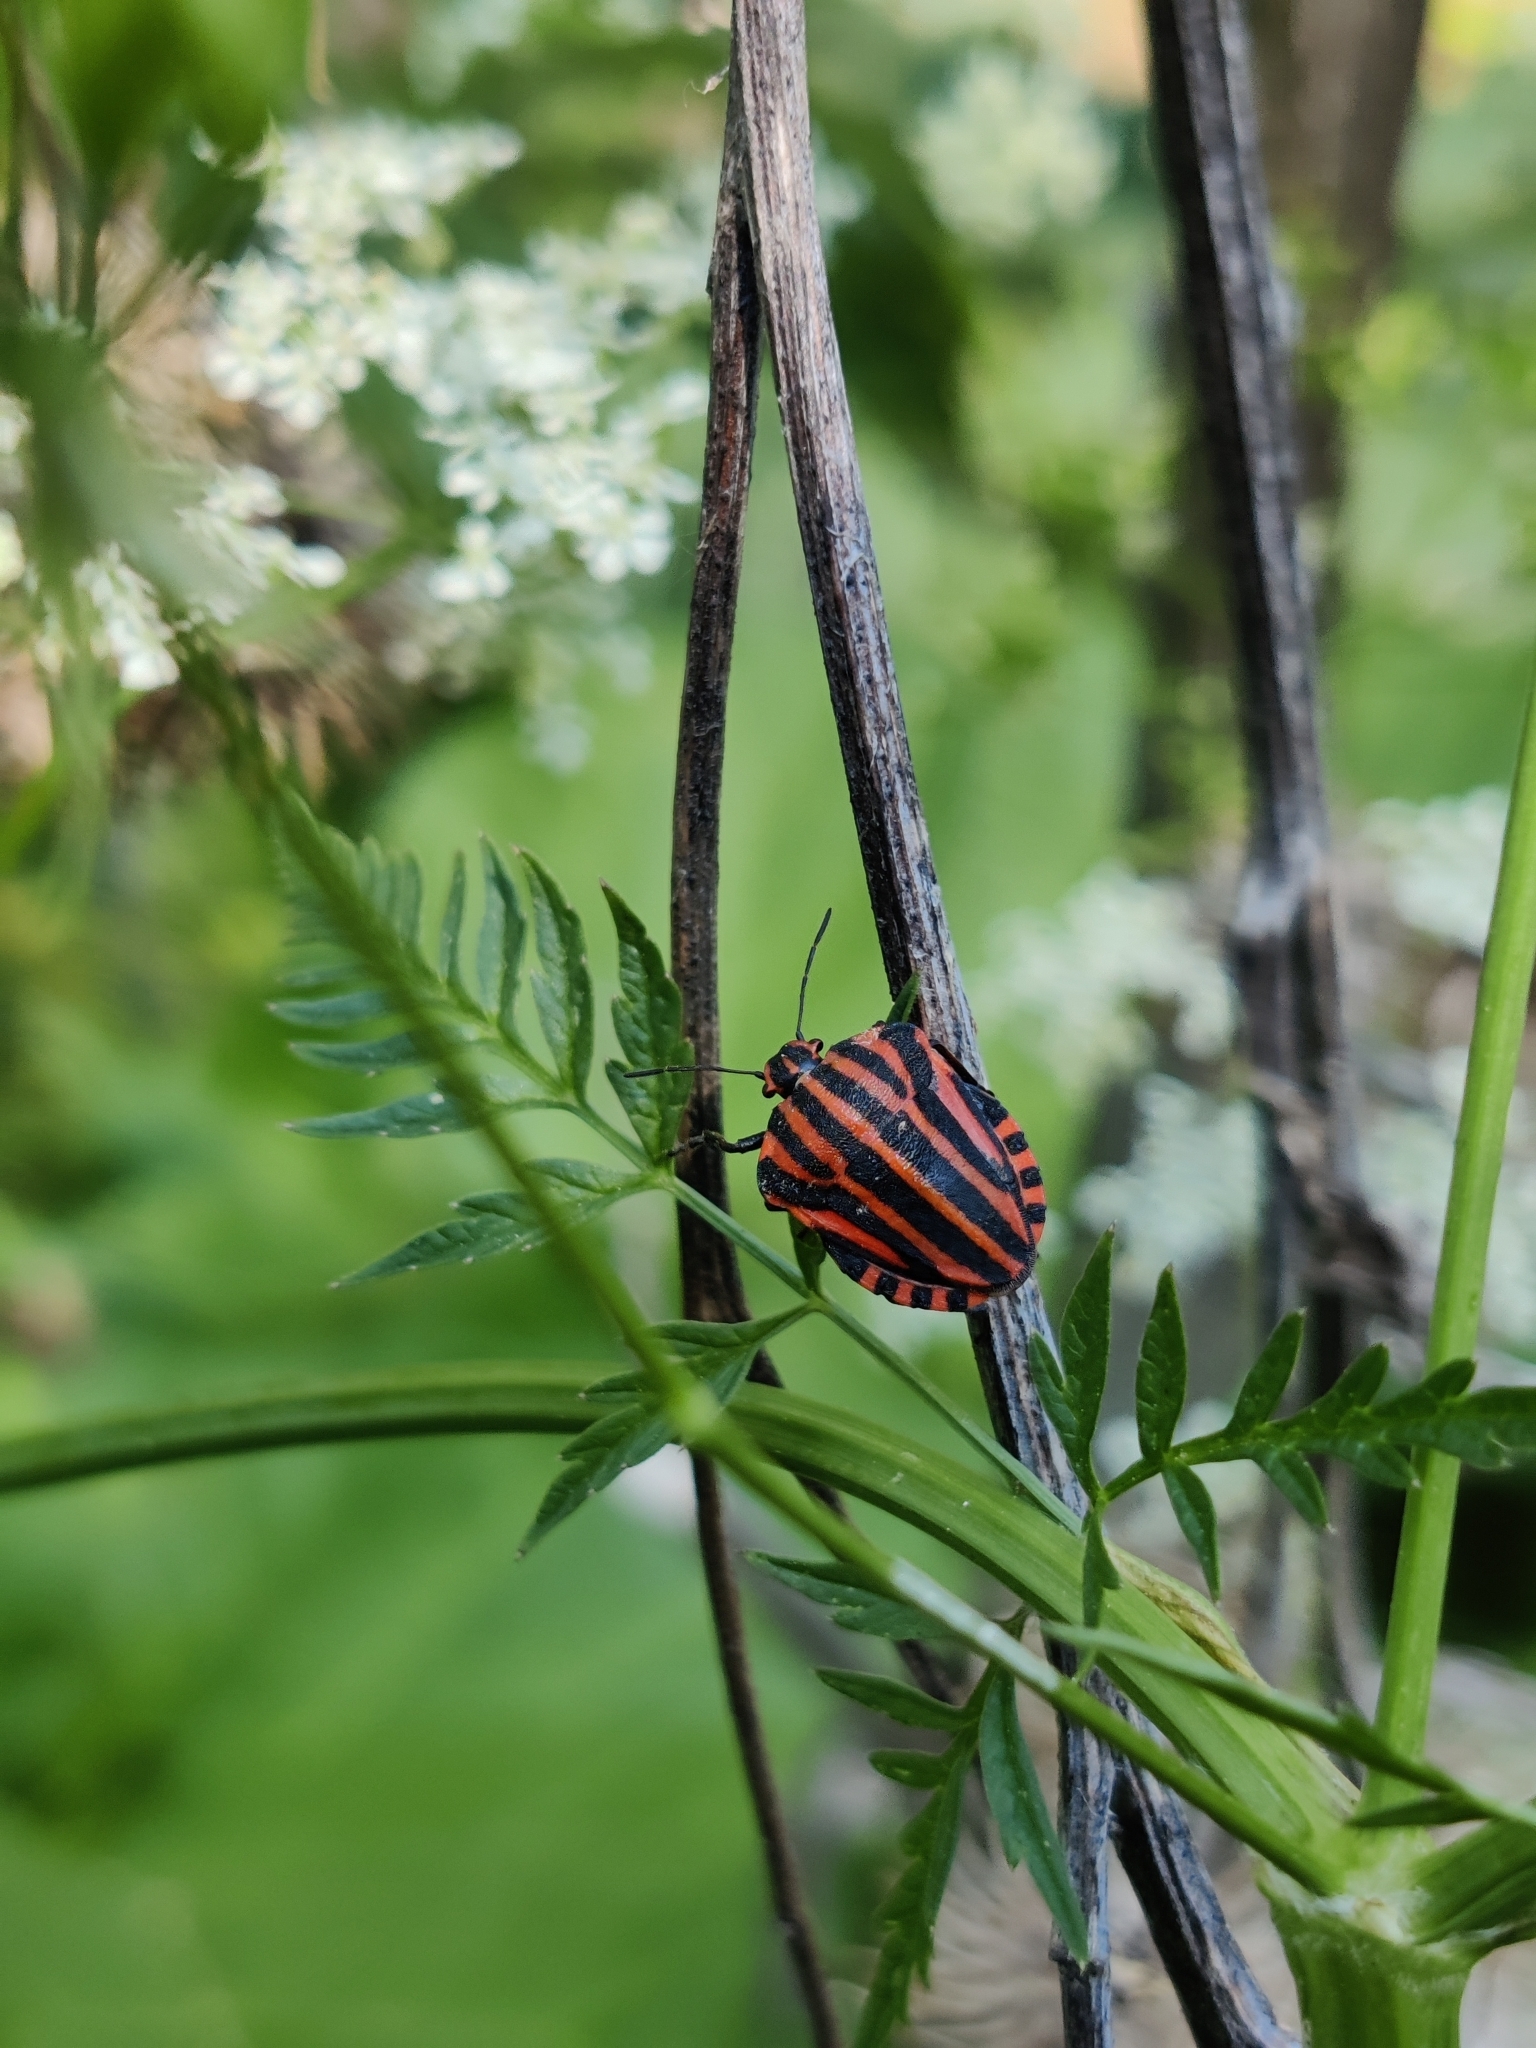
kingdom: Animalia
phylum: Arthropoda
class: Insecta
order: Hemiptera
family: Pentatomidae
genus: Graphosoma
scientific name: Graphosoma italicum
